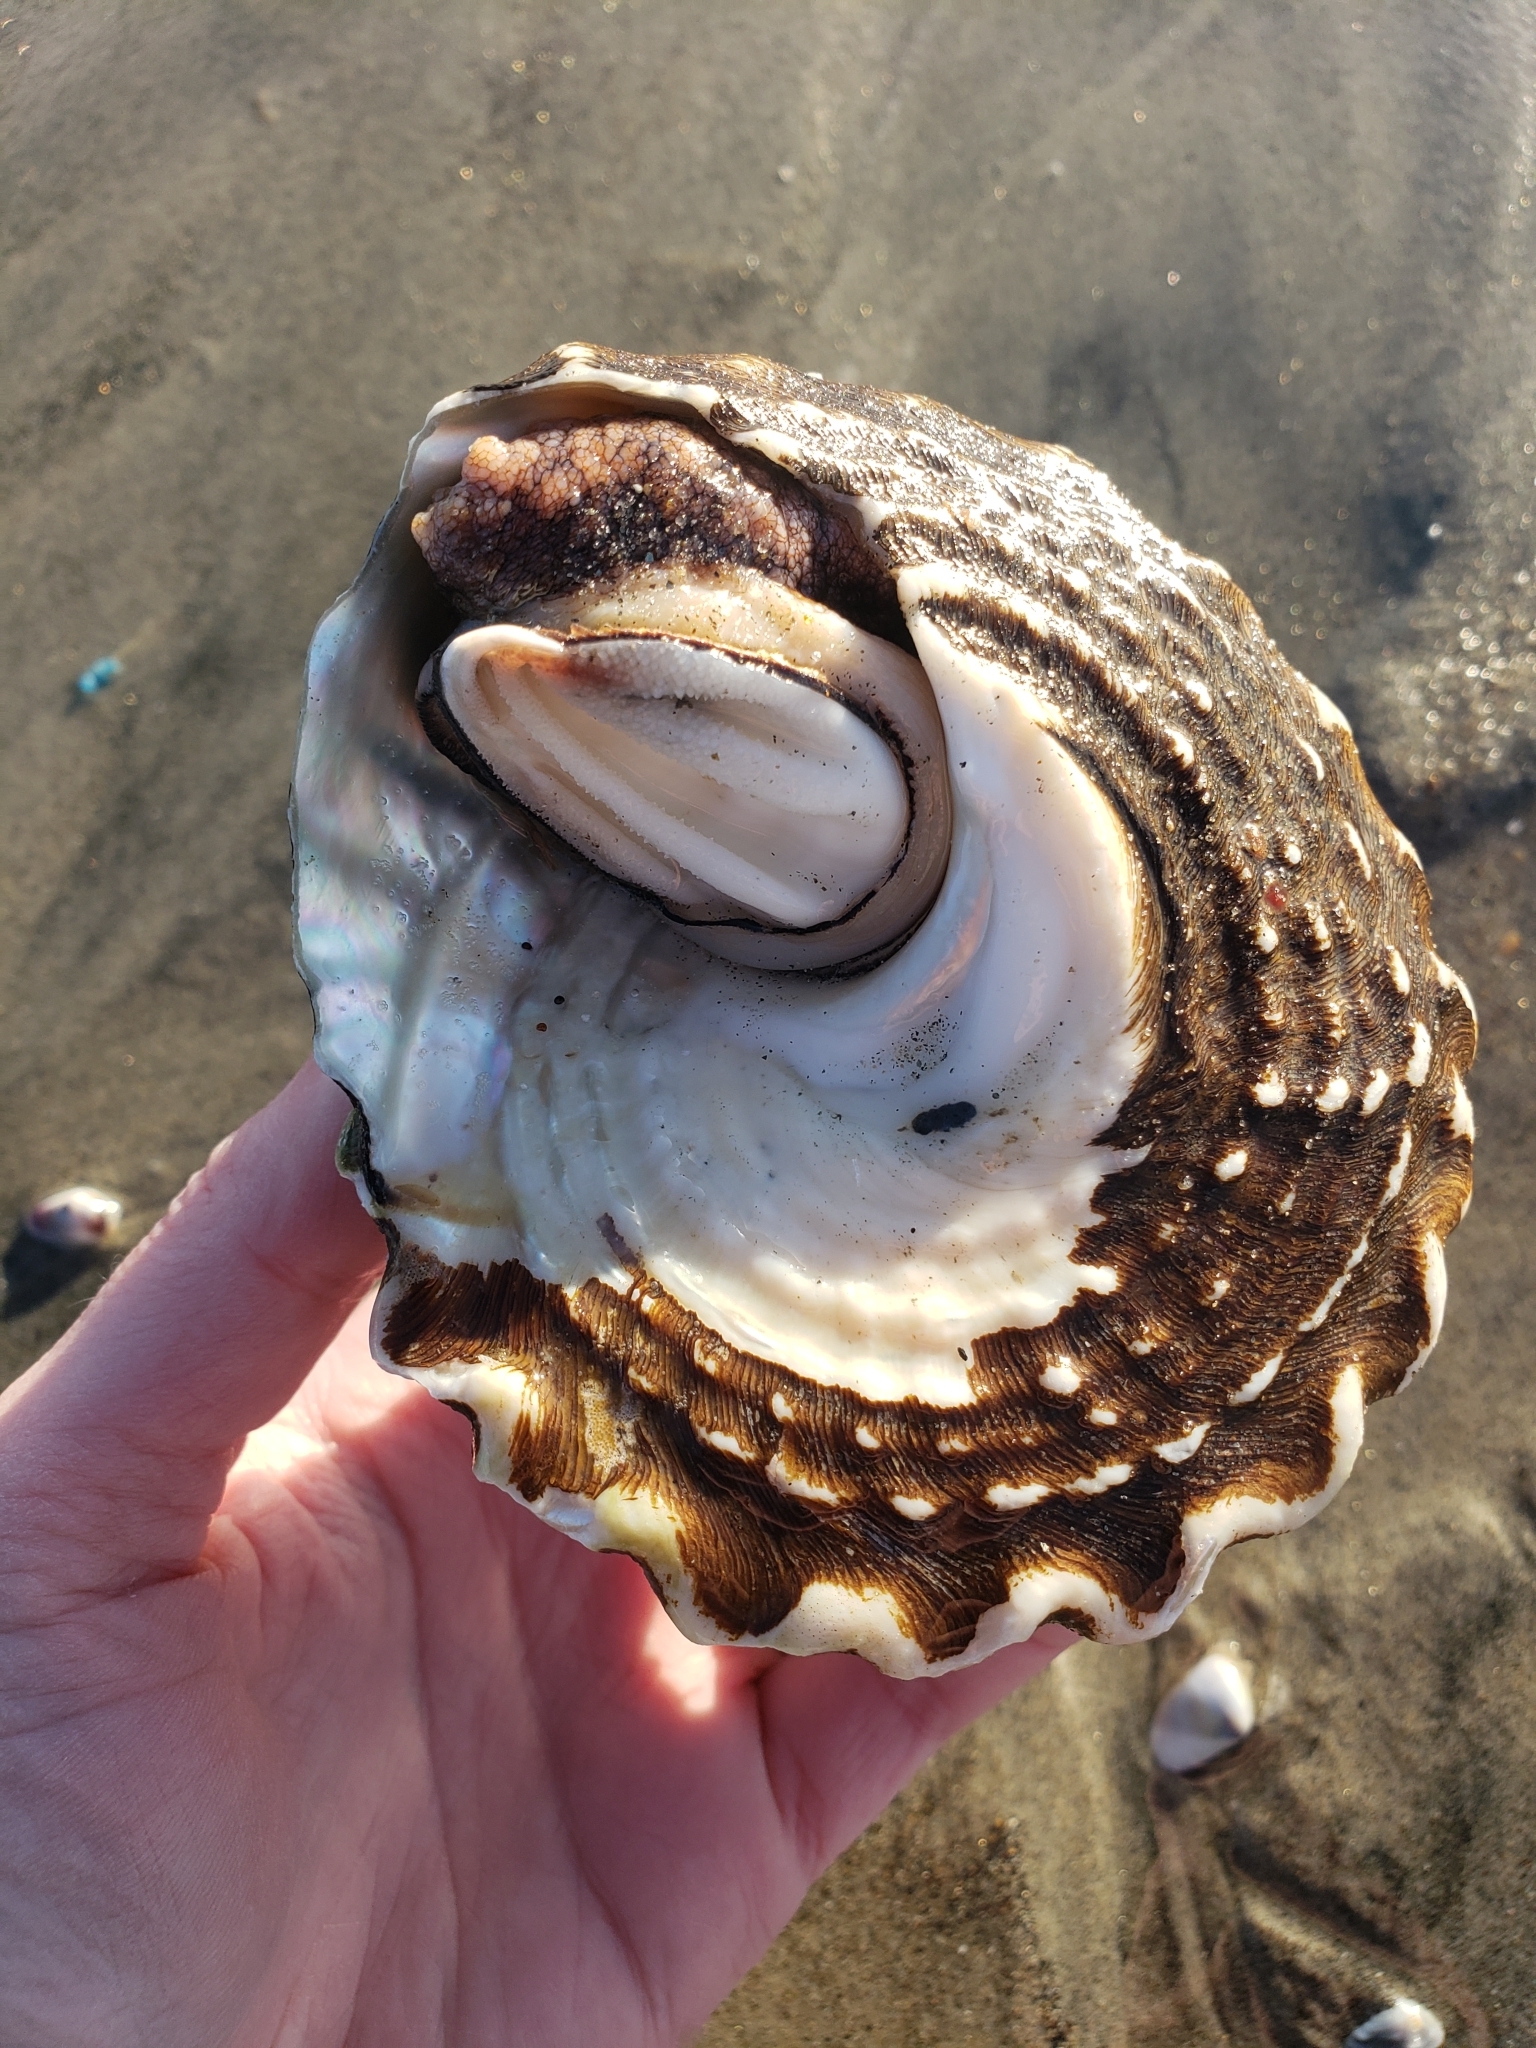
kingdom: Animalia
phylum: Mollusca
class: Gastropoda
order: Trochida
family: Turbinidae
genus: Megastraea
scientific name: Megastraea undosa
